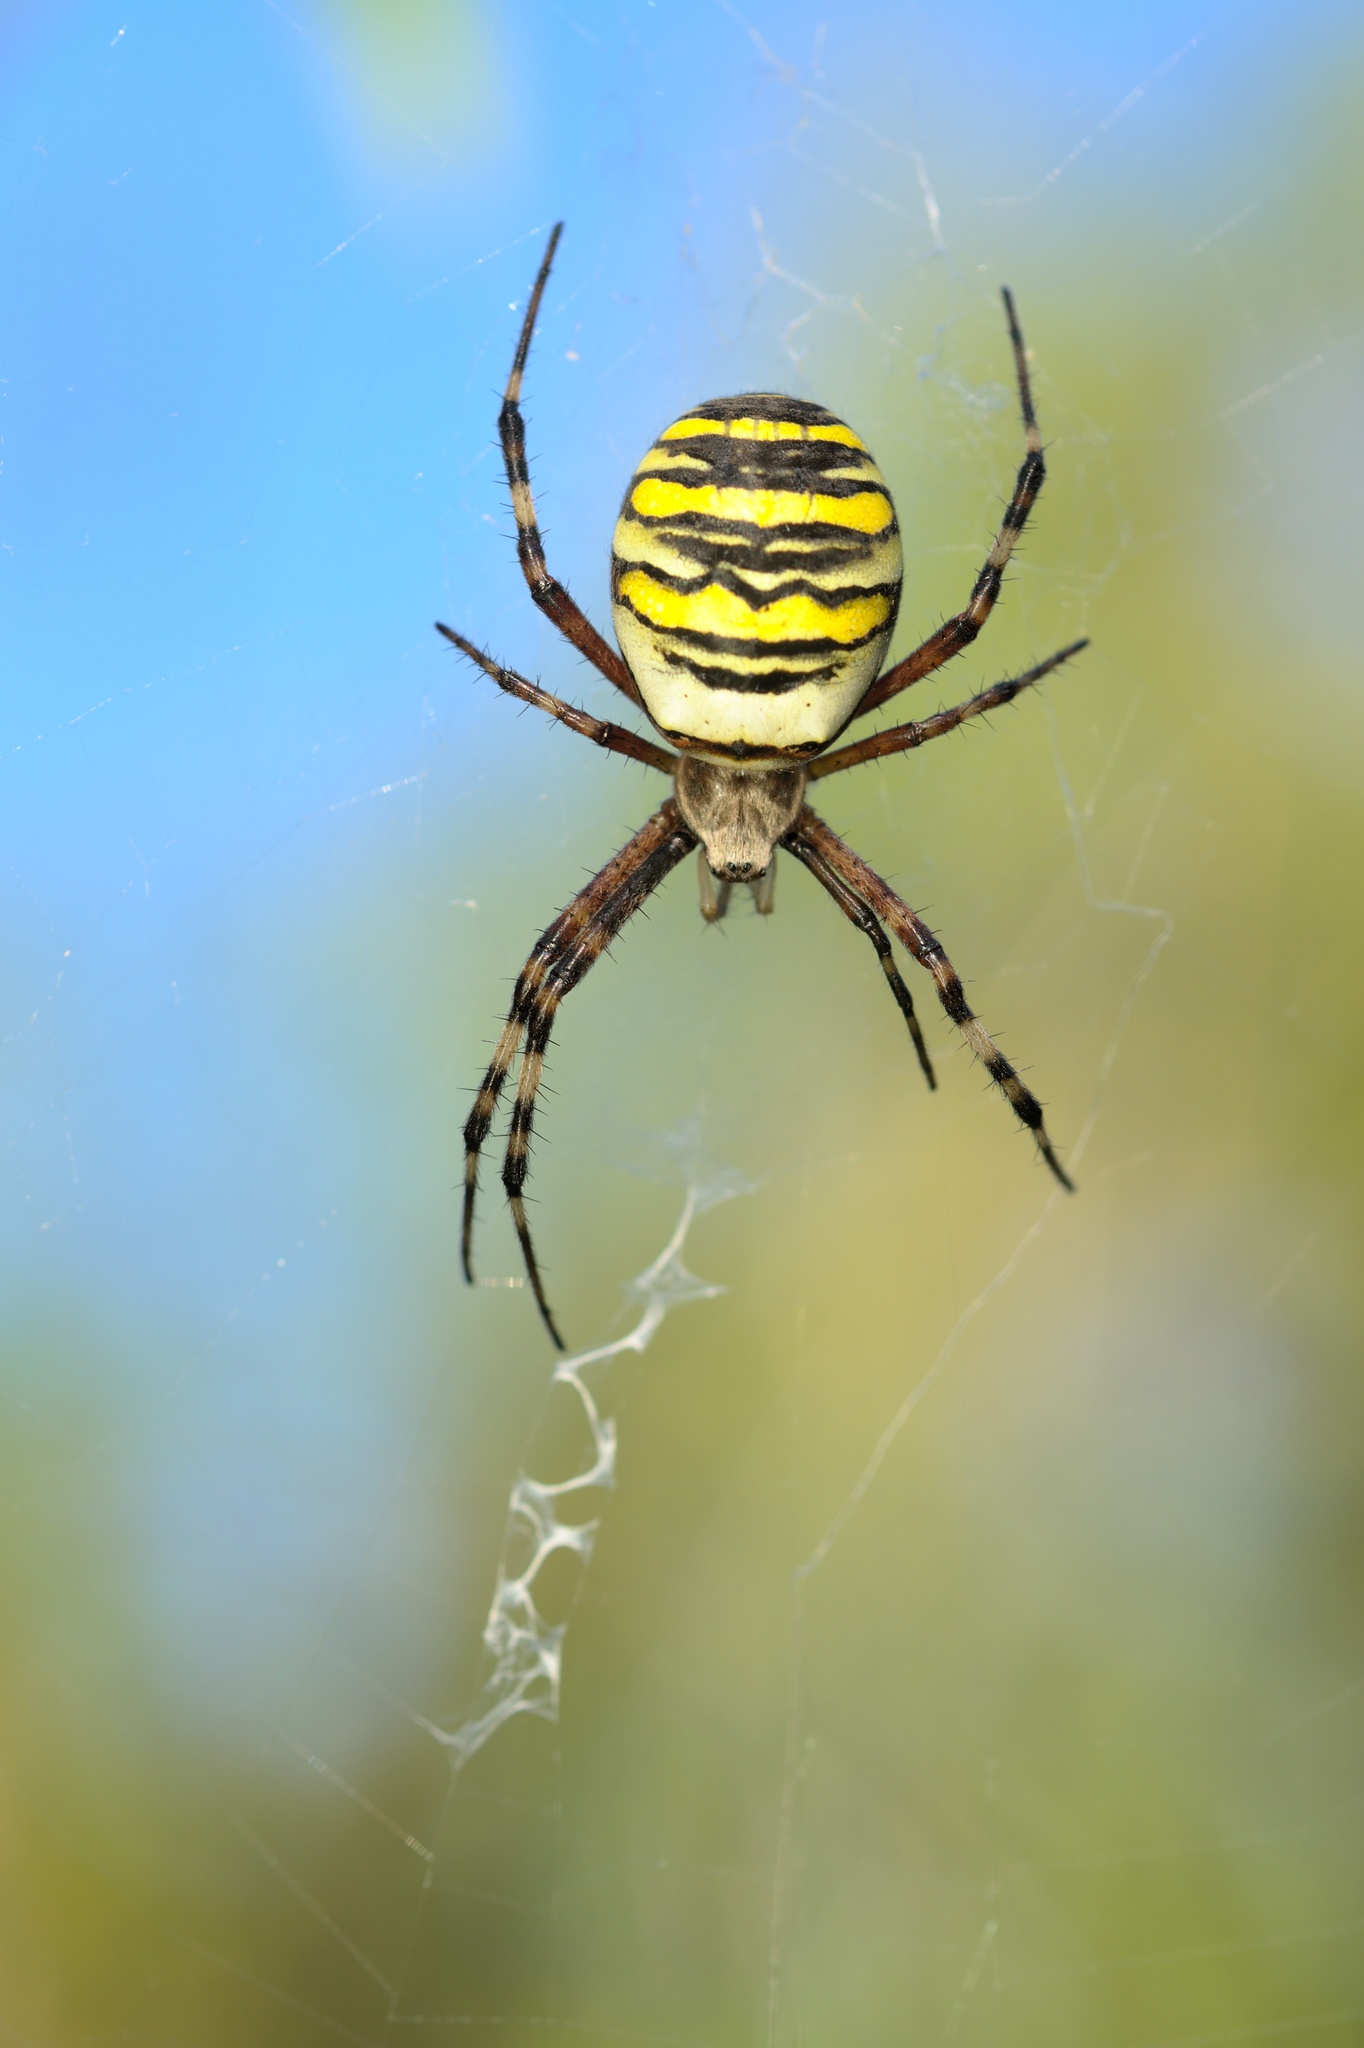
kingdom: Animalia
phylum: Arthropoda
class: Arachnida
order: Araneae
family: Araneidae
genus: Argiope
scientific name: Argiope bruennichi
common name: Wasp spider
